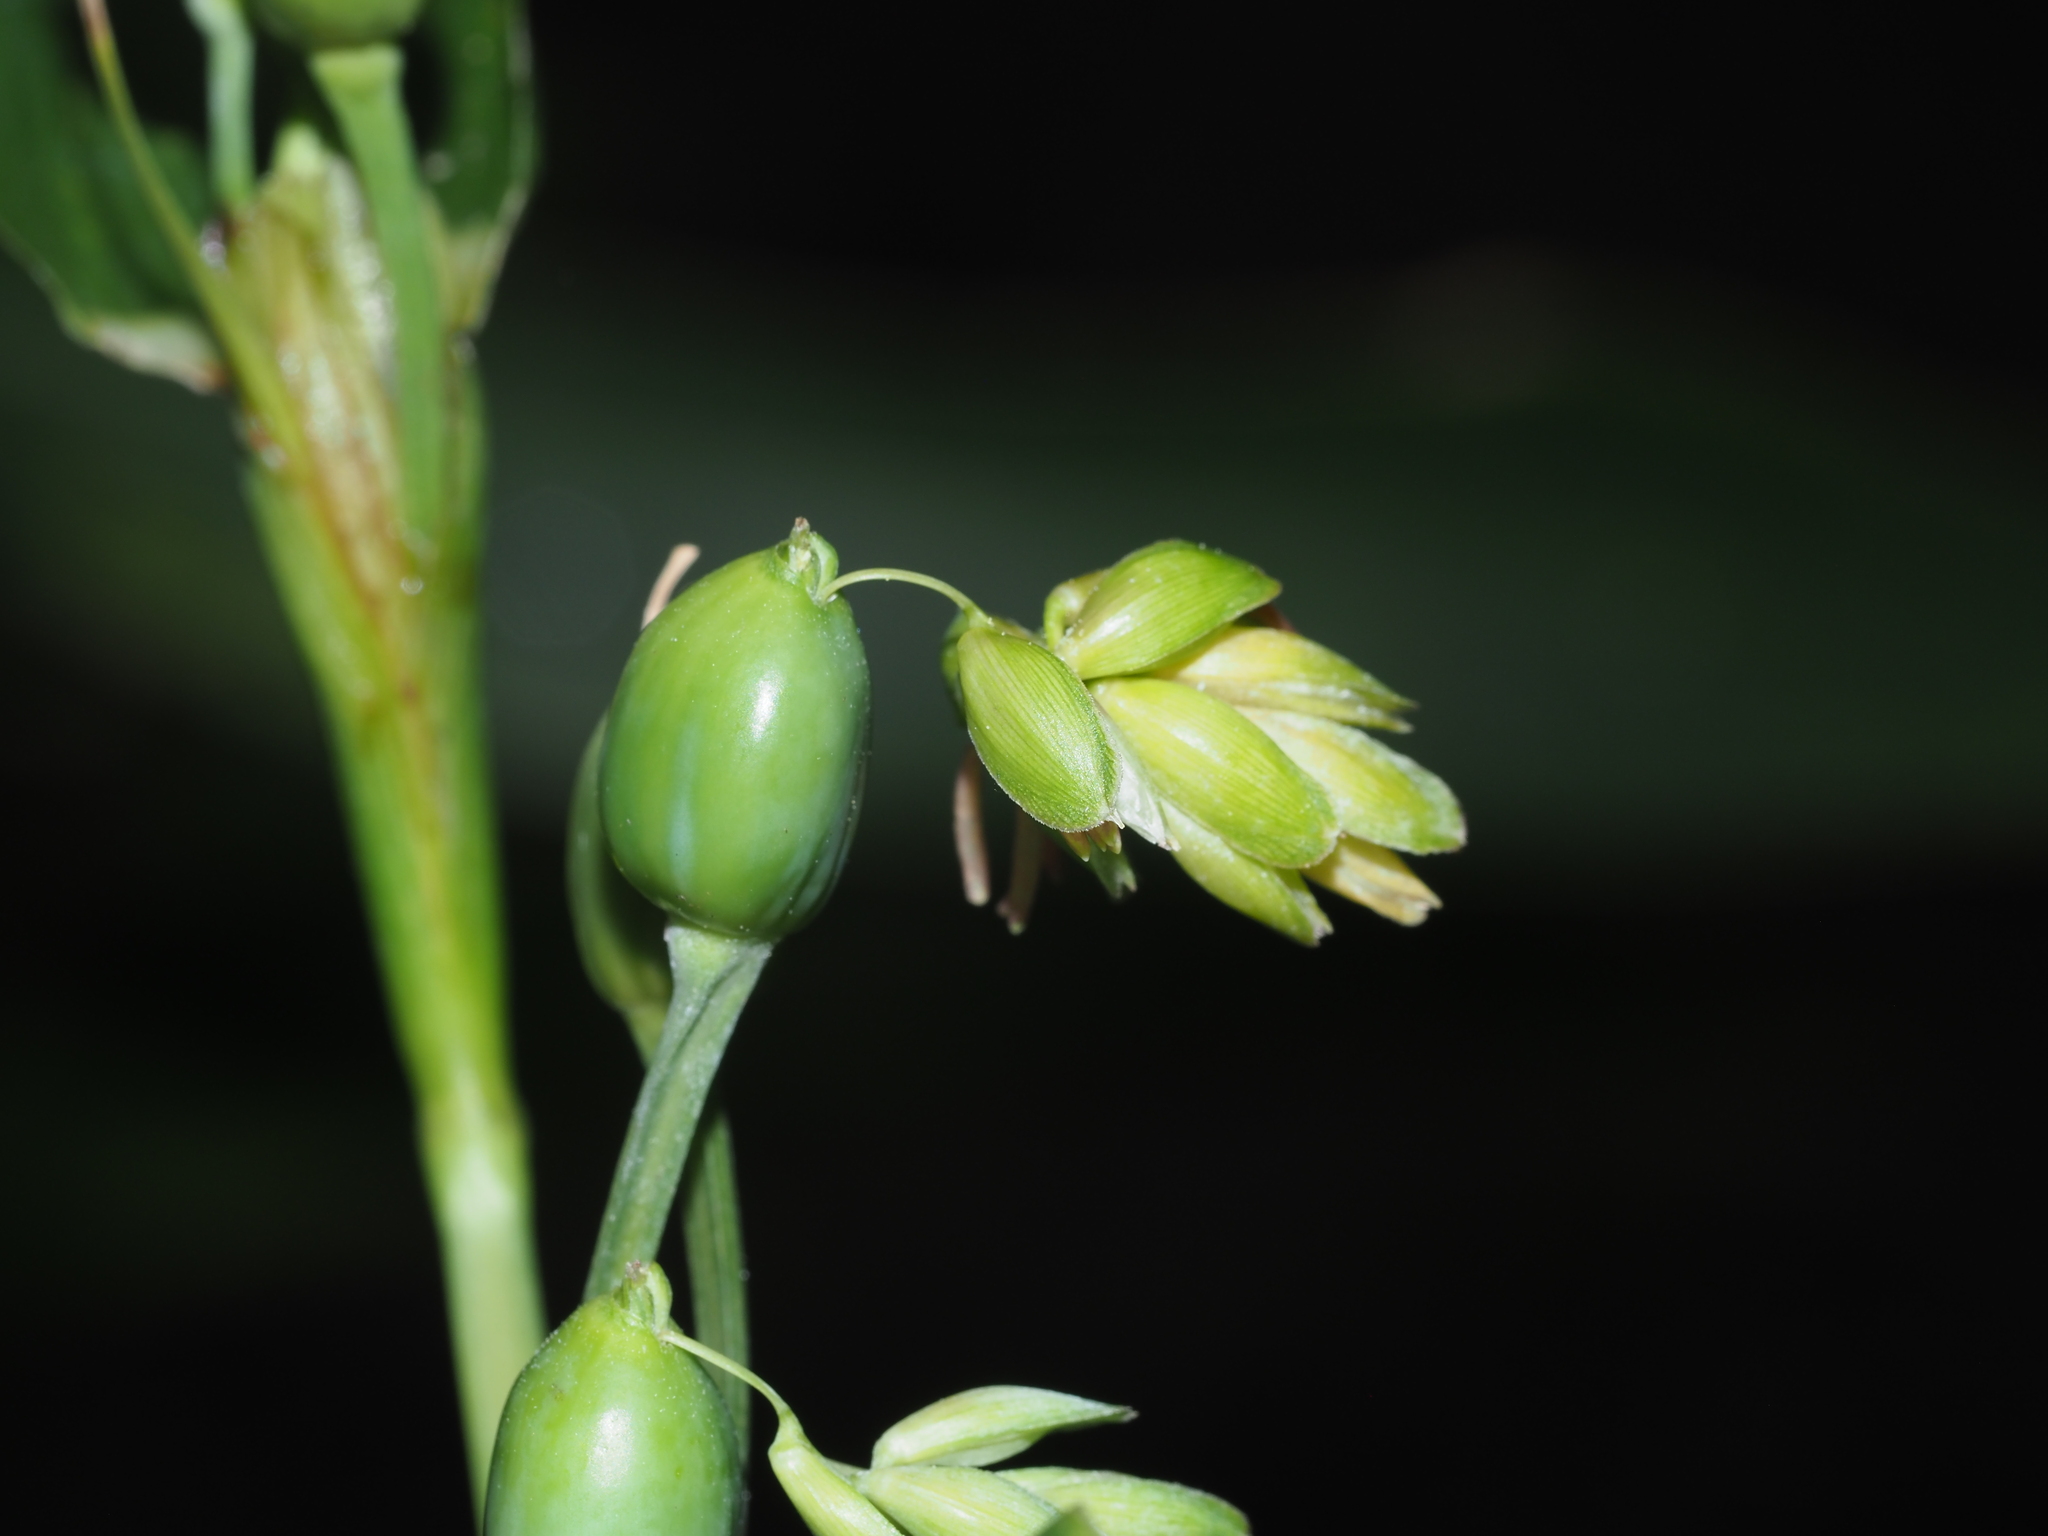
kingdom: Plantae
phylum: Tracheophyta
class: Liliopsida
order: Poales
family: Poaceae
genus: Coix
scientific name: Coix lacryma-jobi
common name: Job's tears
